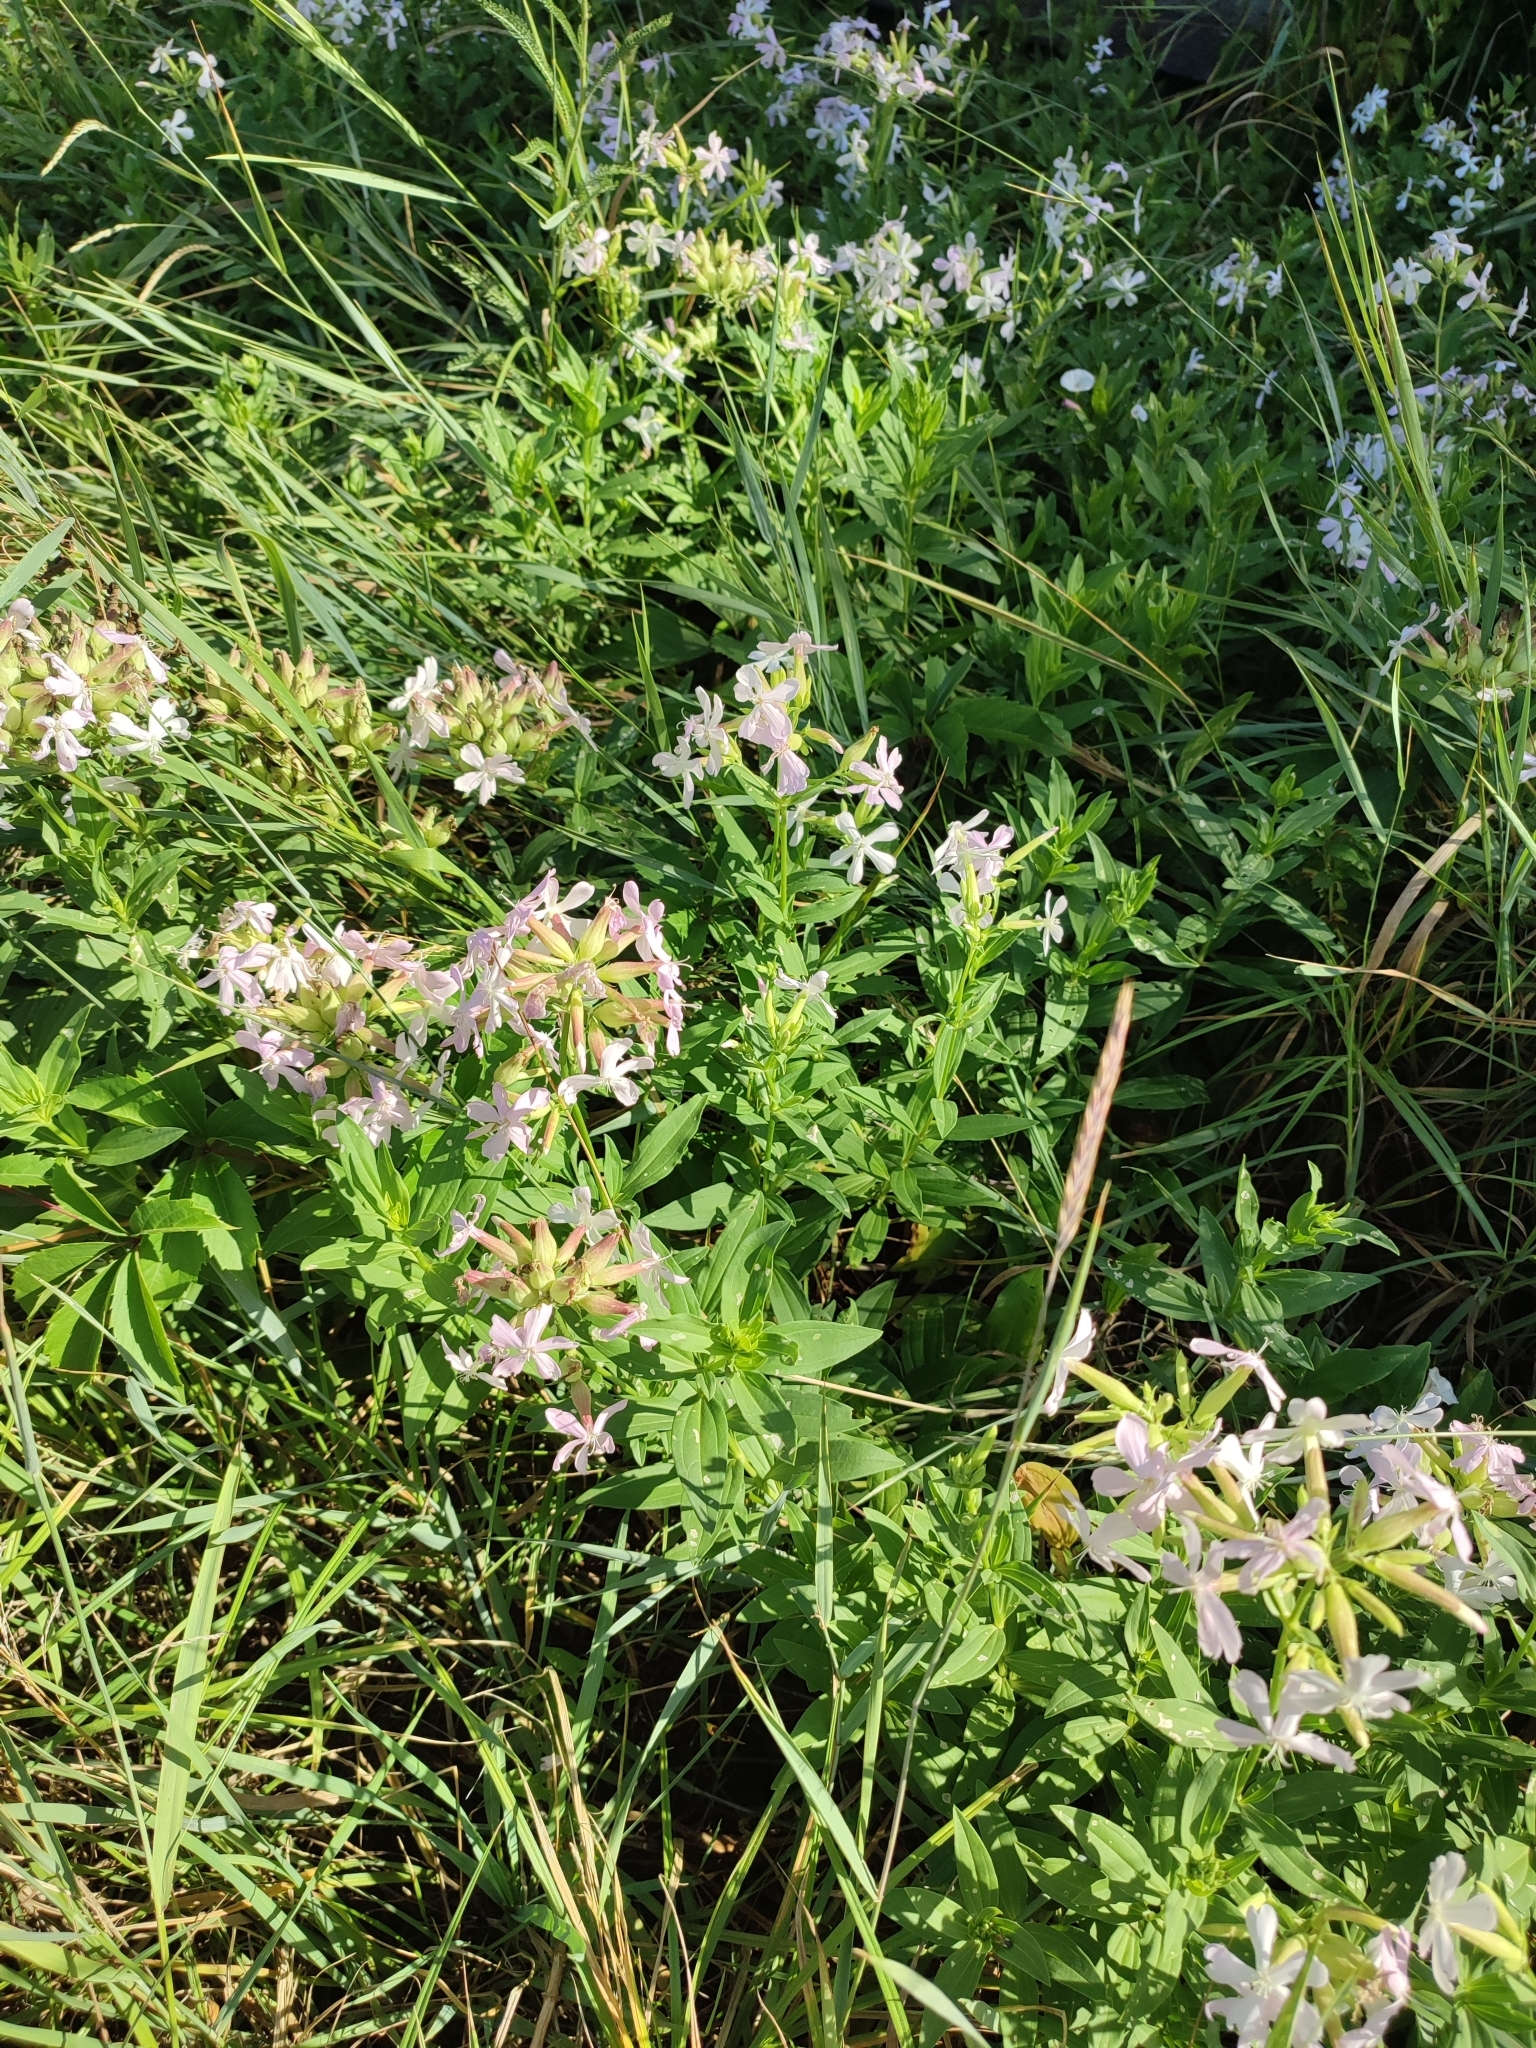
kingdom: Plantae
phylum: Tracheophyta
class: Magnoliopsida
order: Caryophyllales
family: Caryophyllaceae
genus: Saponaria
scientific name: Saponaria officinalis
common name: Soapwort
